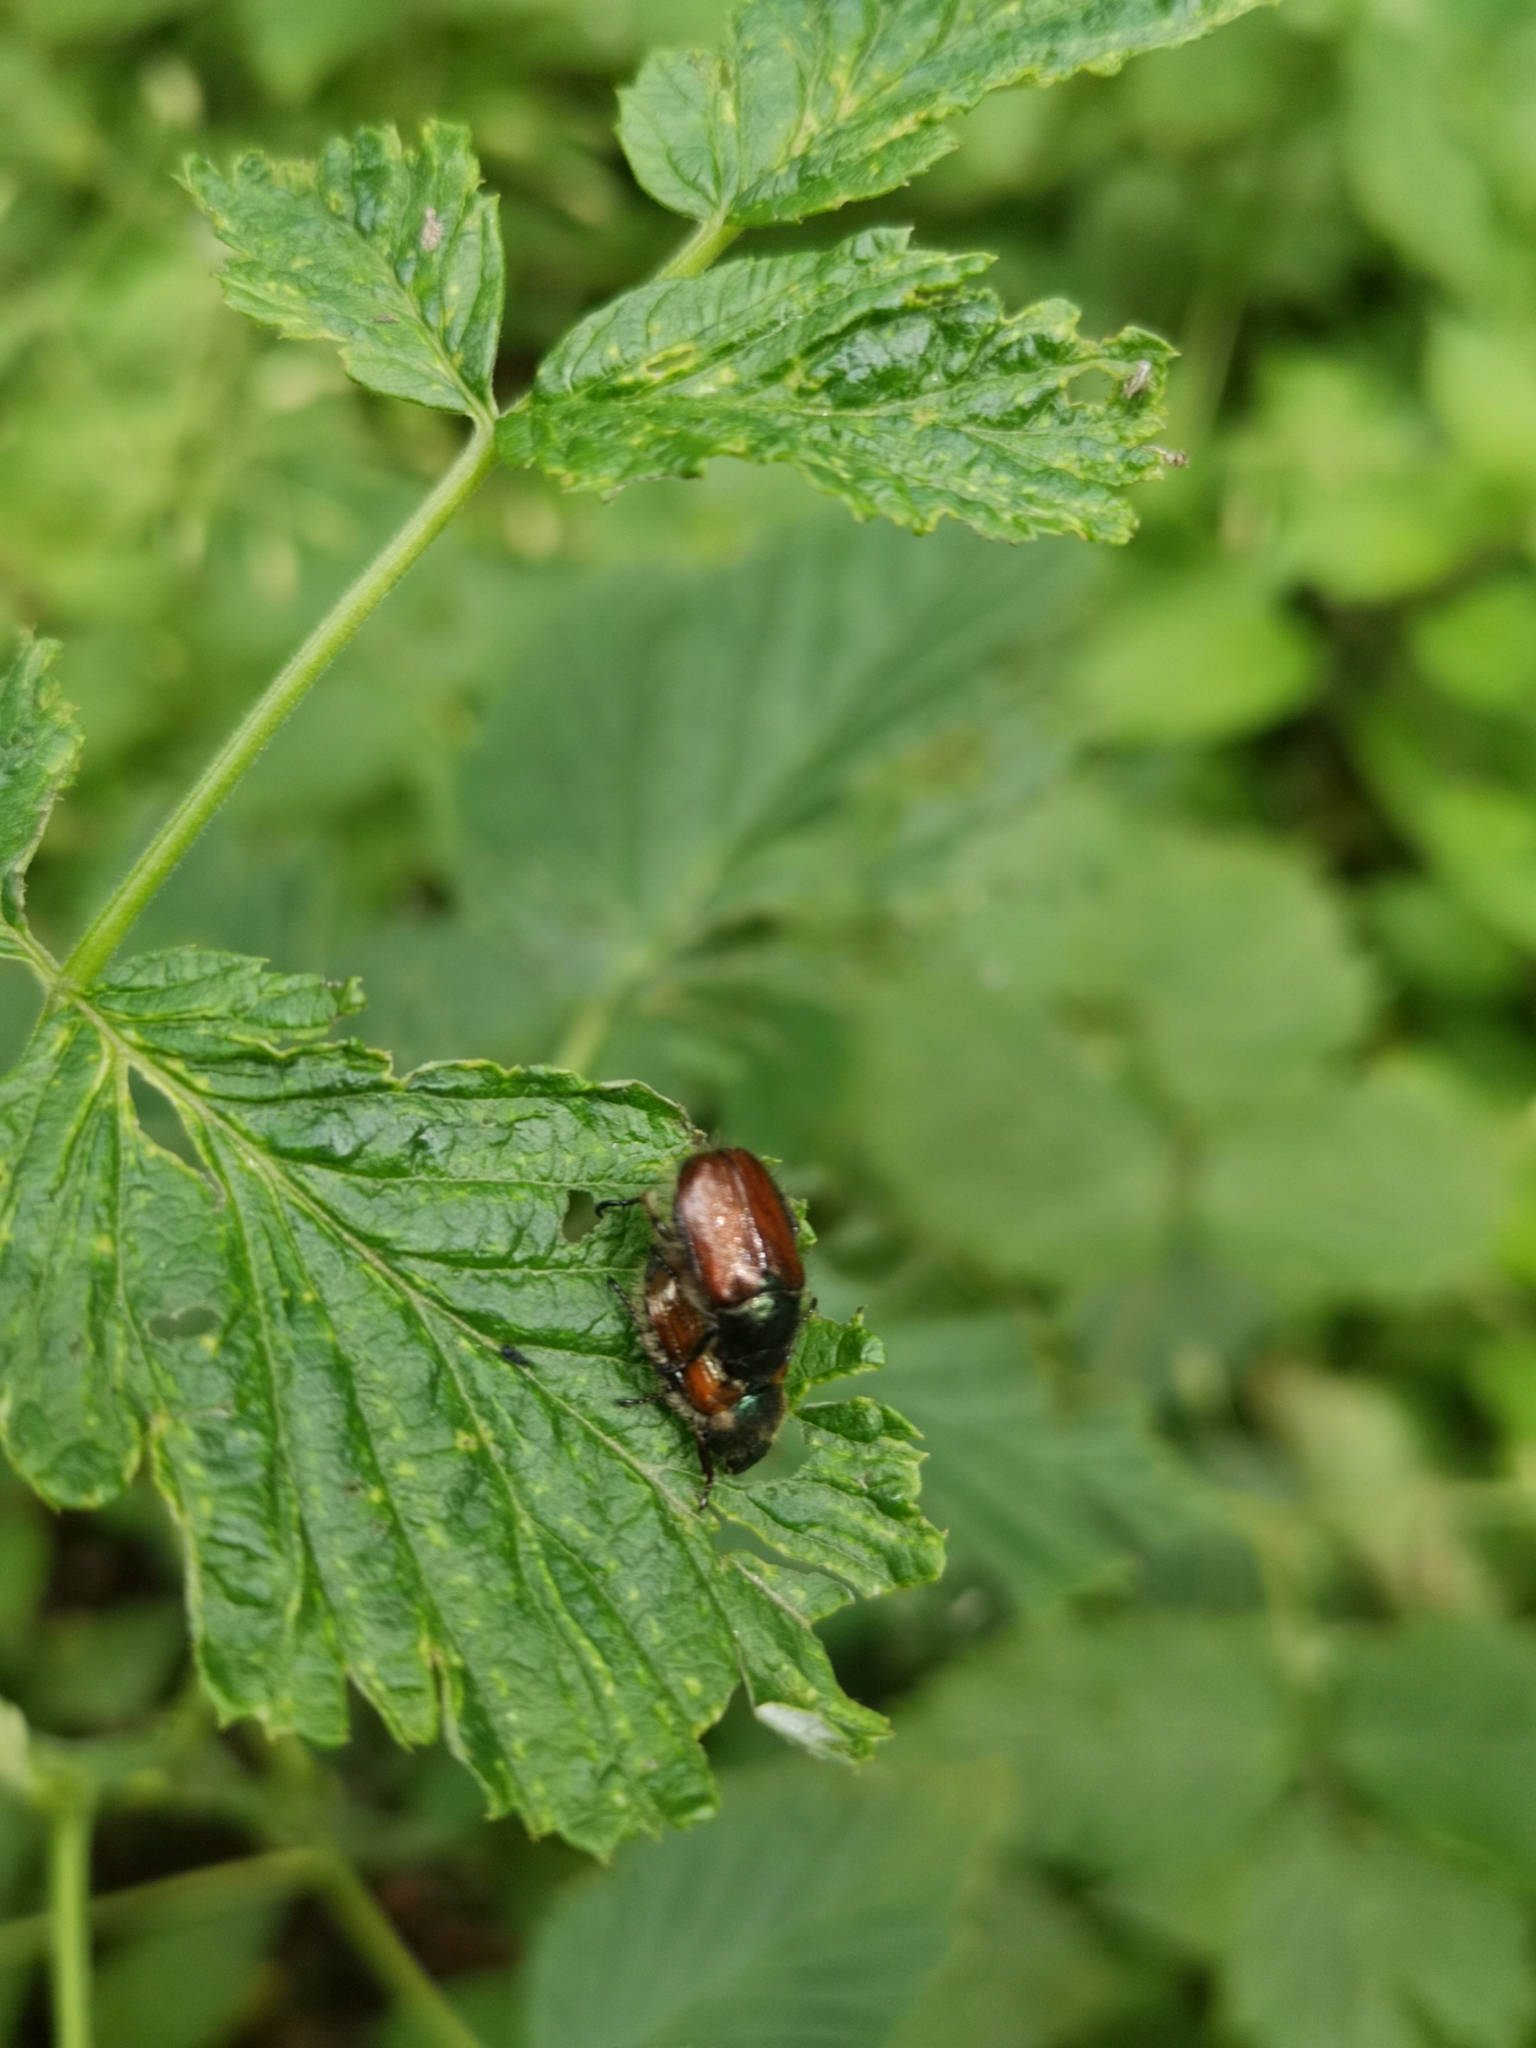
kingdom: Animalia
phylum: Arthropoda
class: Insecta
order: Coleoptera
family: Scarabaeidae
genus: Phyllopertha
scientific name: Phyllopertha horticola
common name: Garden chafer
